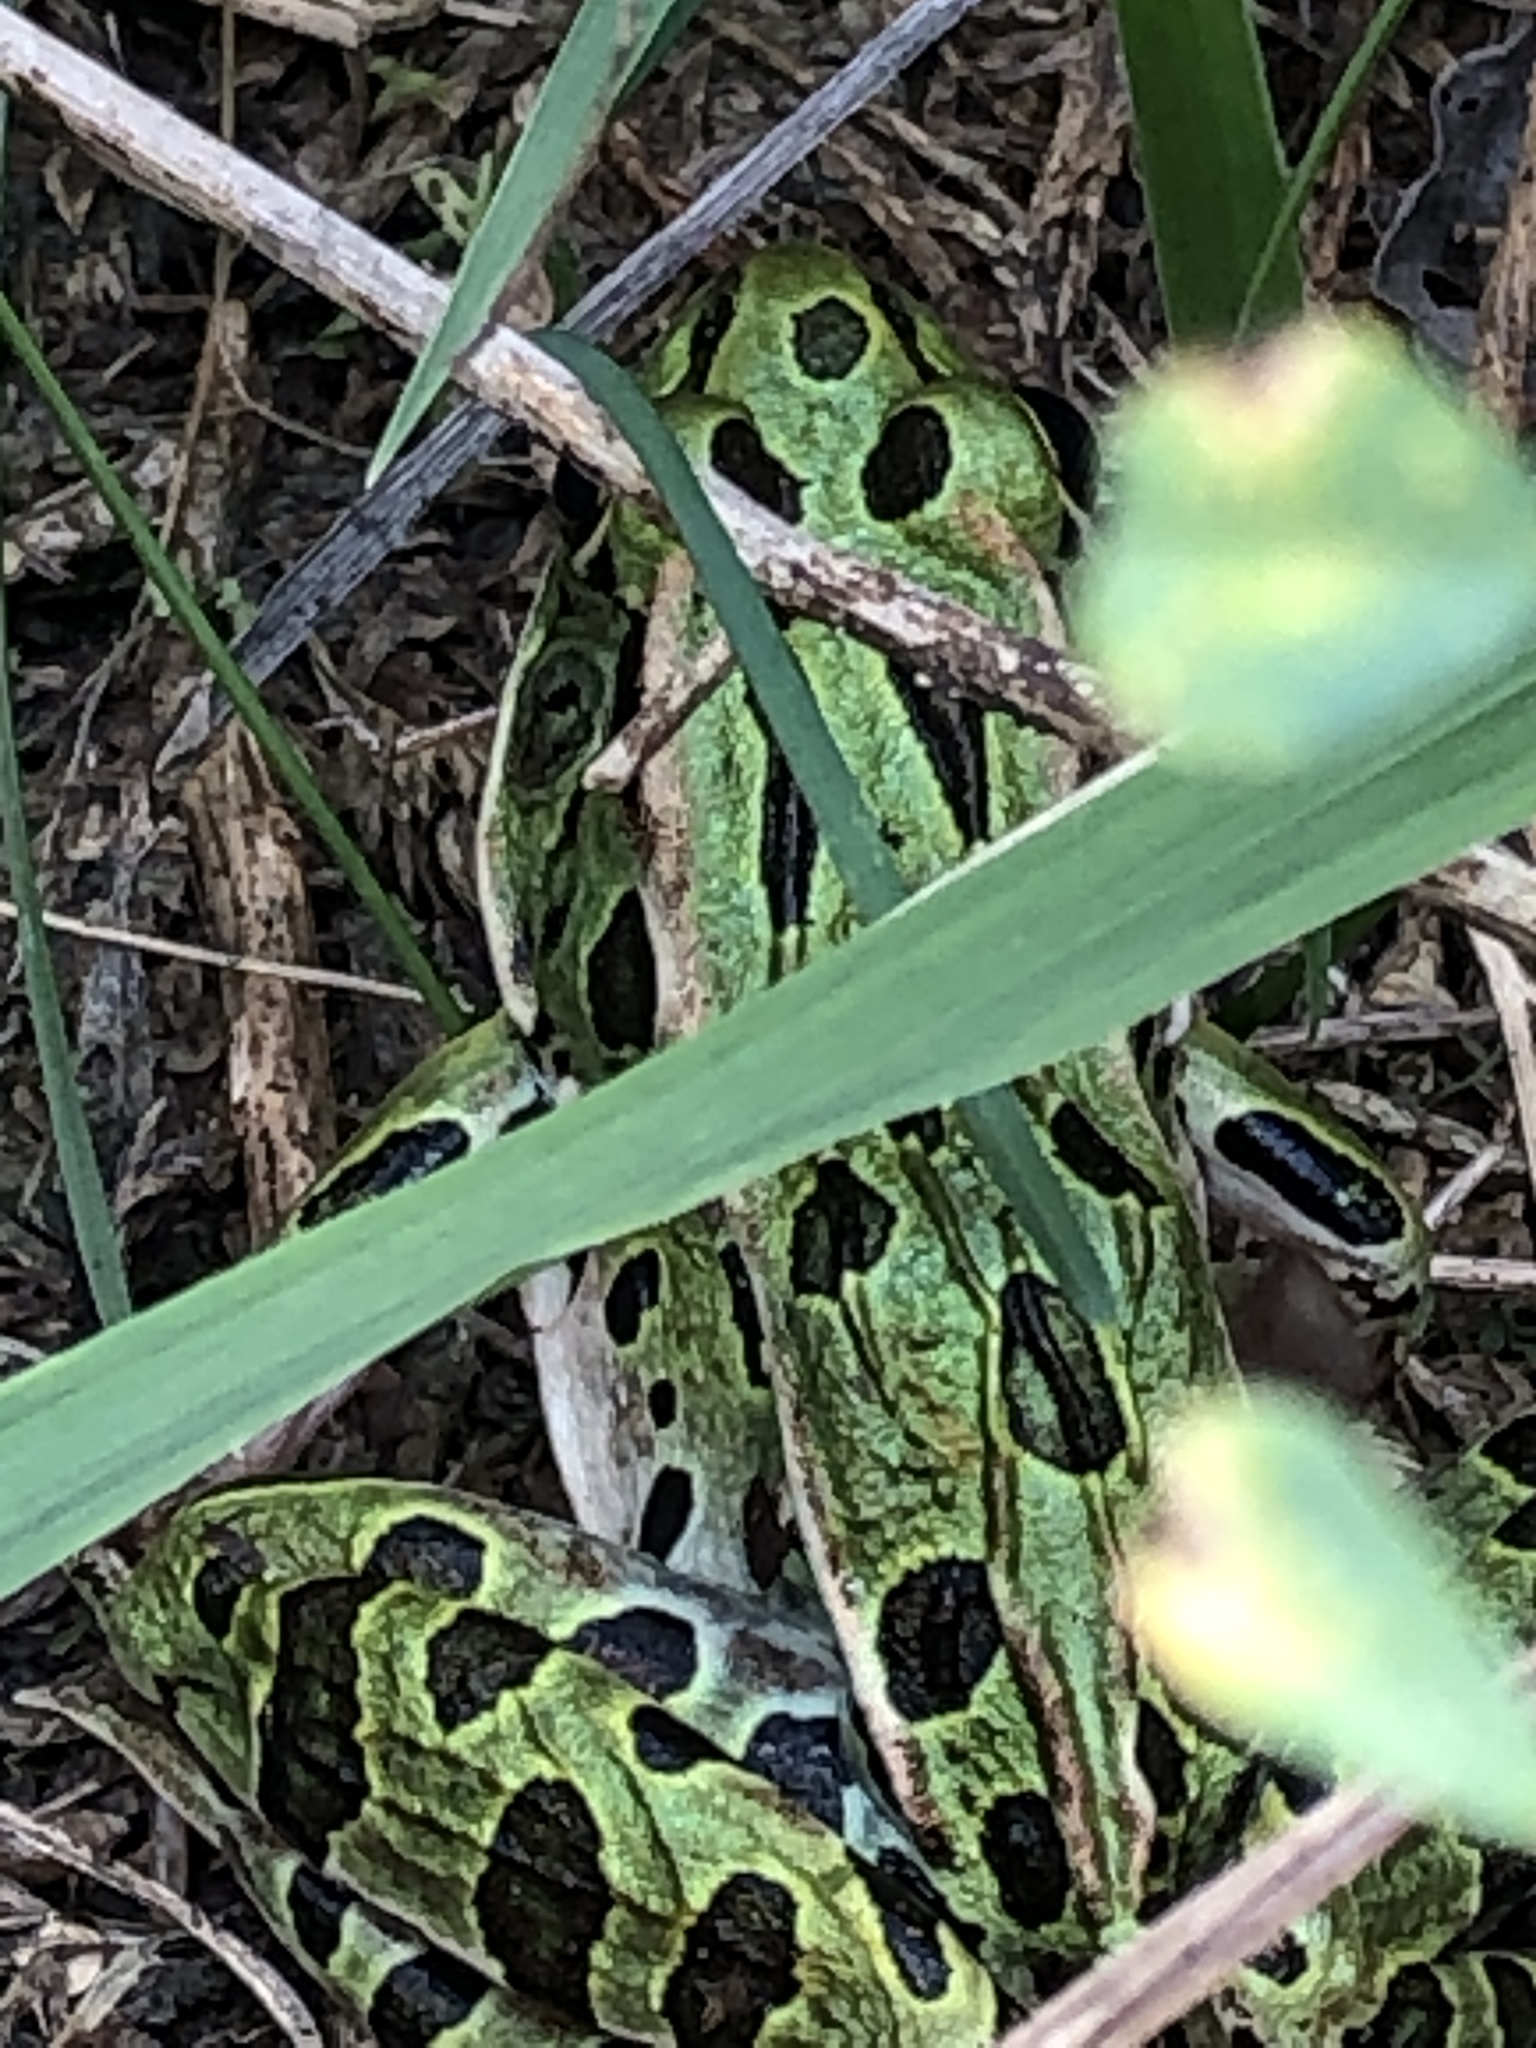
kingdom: Animalia
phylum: Chordata
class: Amphibia
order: Anura
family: Ranidae
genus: Lithobates
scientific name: Lithobates pipiens
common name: Northern leopard frog
